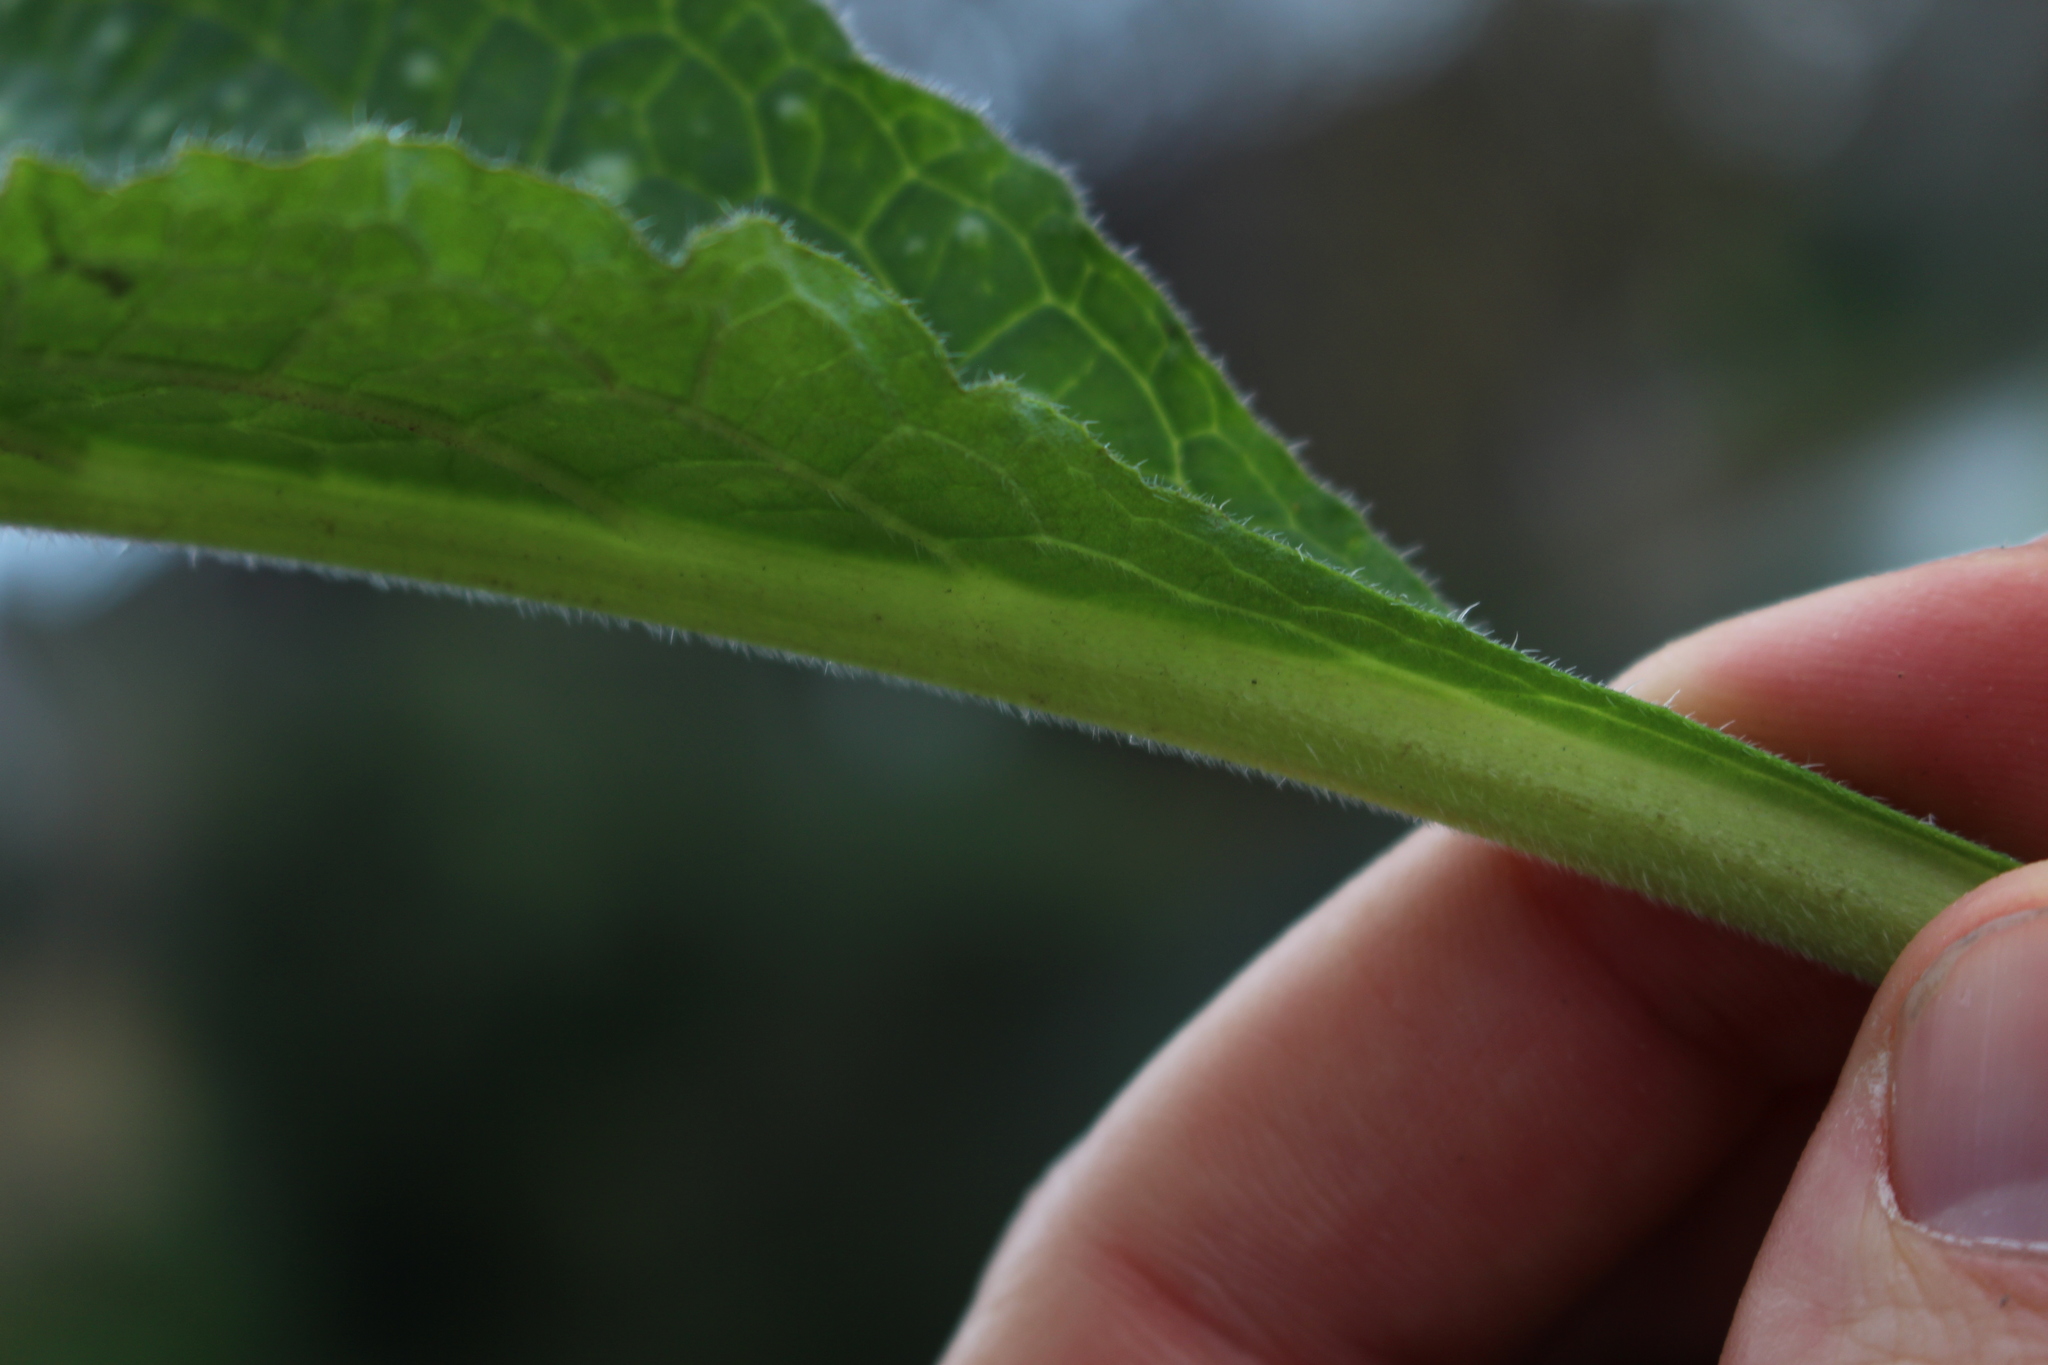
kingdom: Plantae
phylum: Tracheophyta
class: Magnoliopsida
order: Boraginales
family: Boraginaceae
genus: Pentaglottis
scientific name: Pentaglottis sempervirens
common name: Green alkanet
